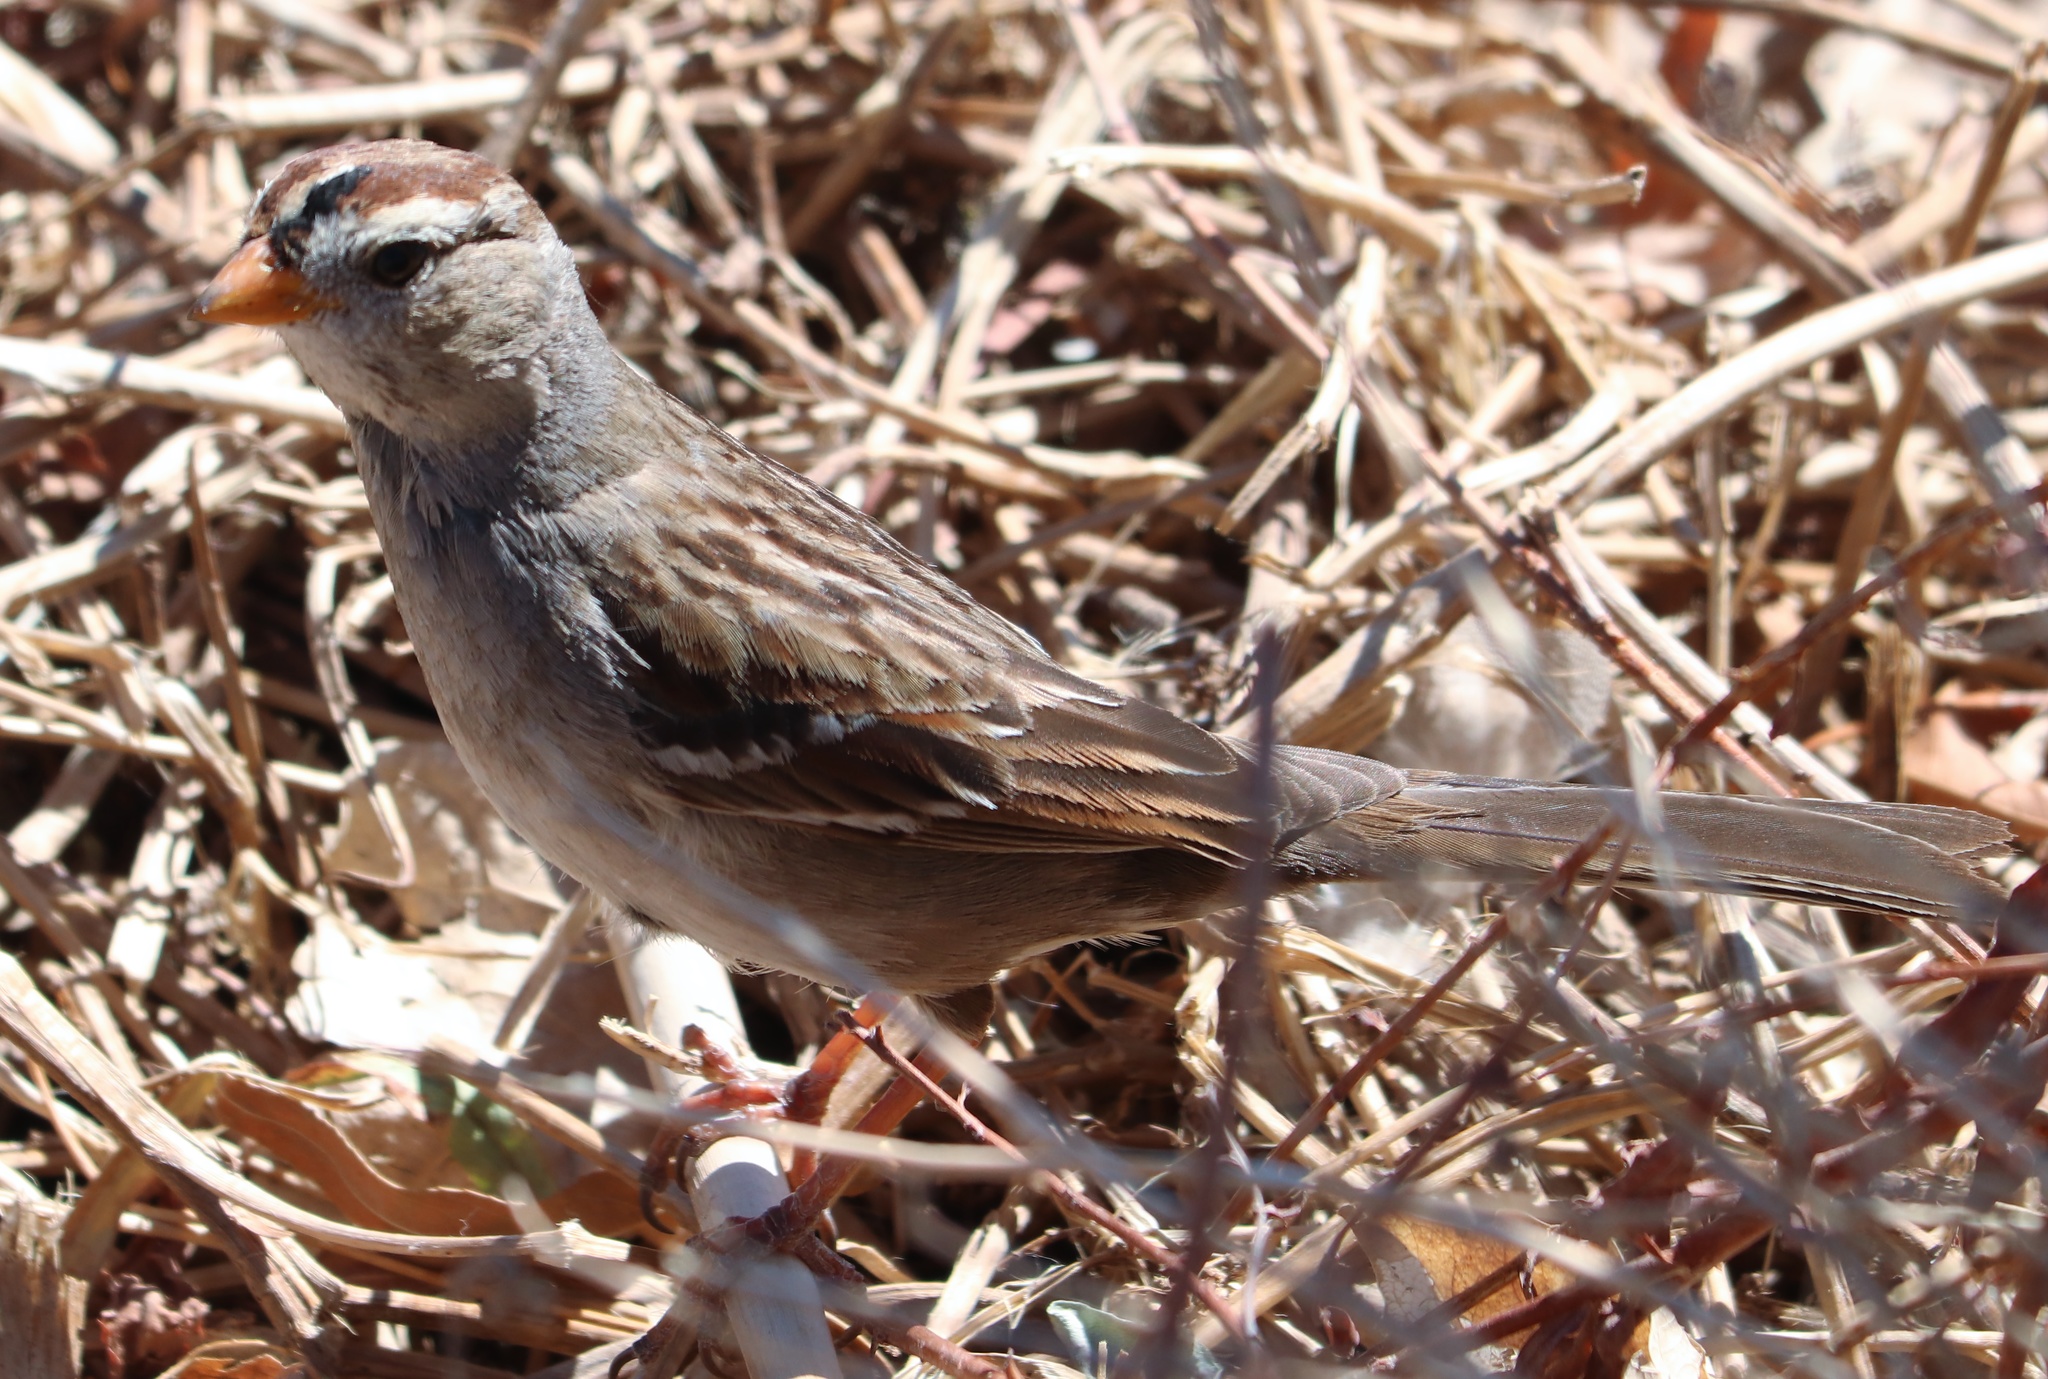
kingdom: Animalia
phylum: Chordata
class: Aves
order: Passeriformes
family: Passerellidae
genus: Zonotrichia
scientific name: Zonotrichia leucophrys
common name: White-crowned sparrow
